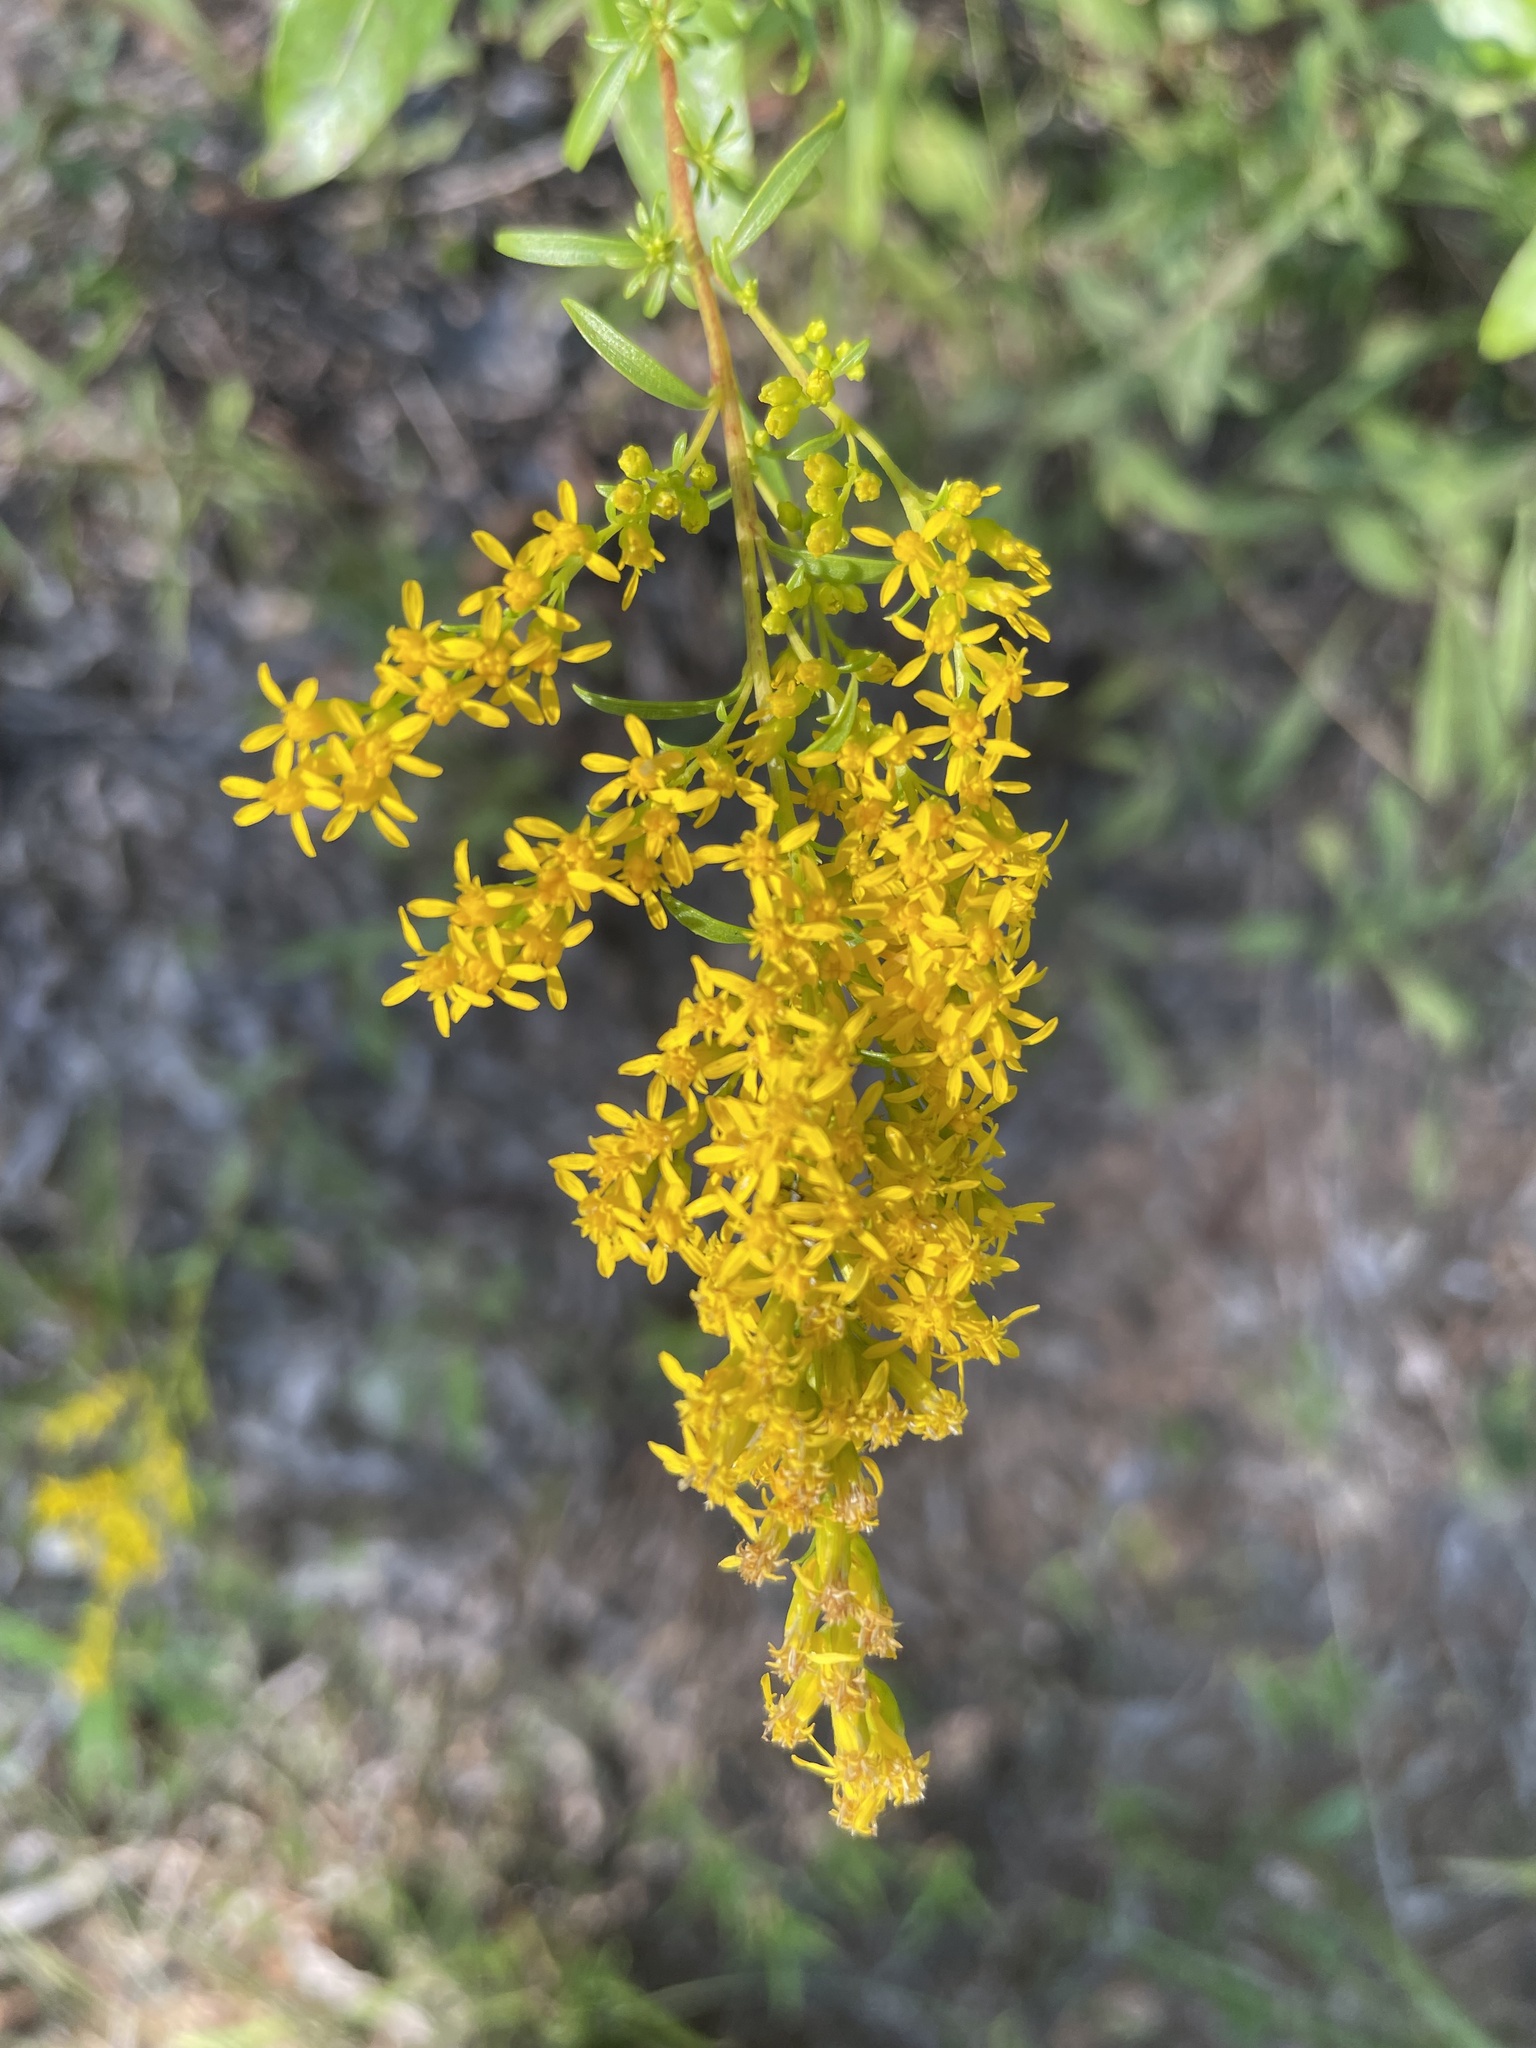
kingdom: Plantae
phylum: Tracheophyta
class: Magnoliopsida
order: Asterales
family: Asteraceae
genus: Solidago
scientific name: Solidago pinetorum
